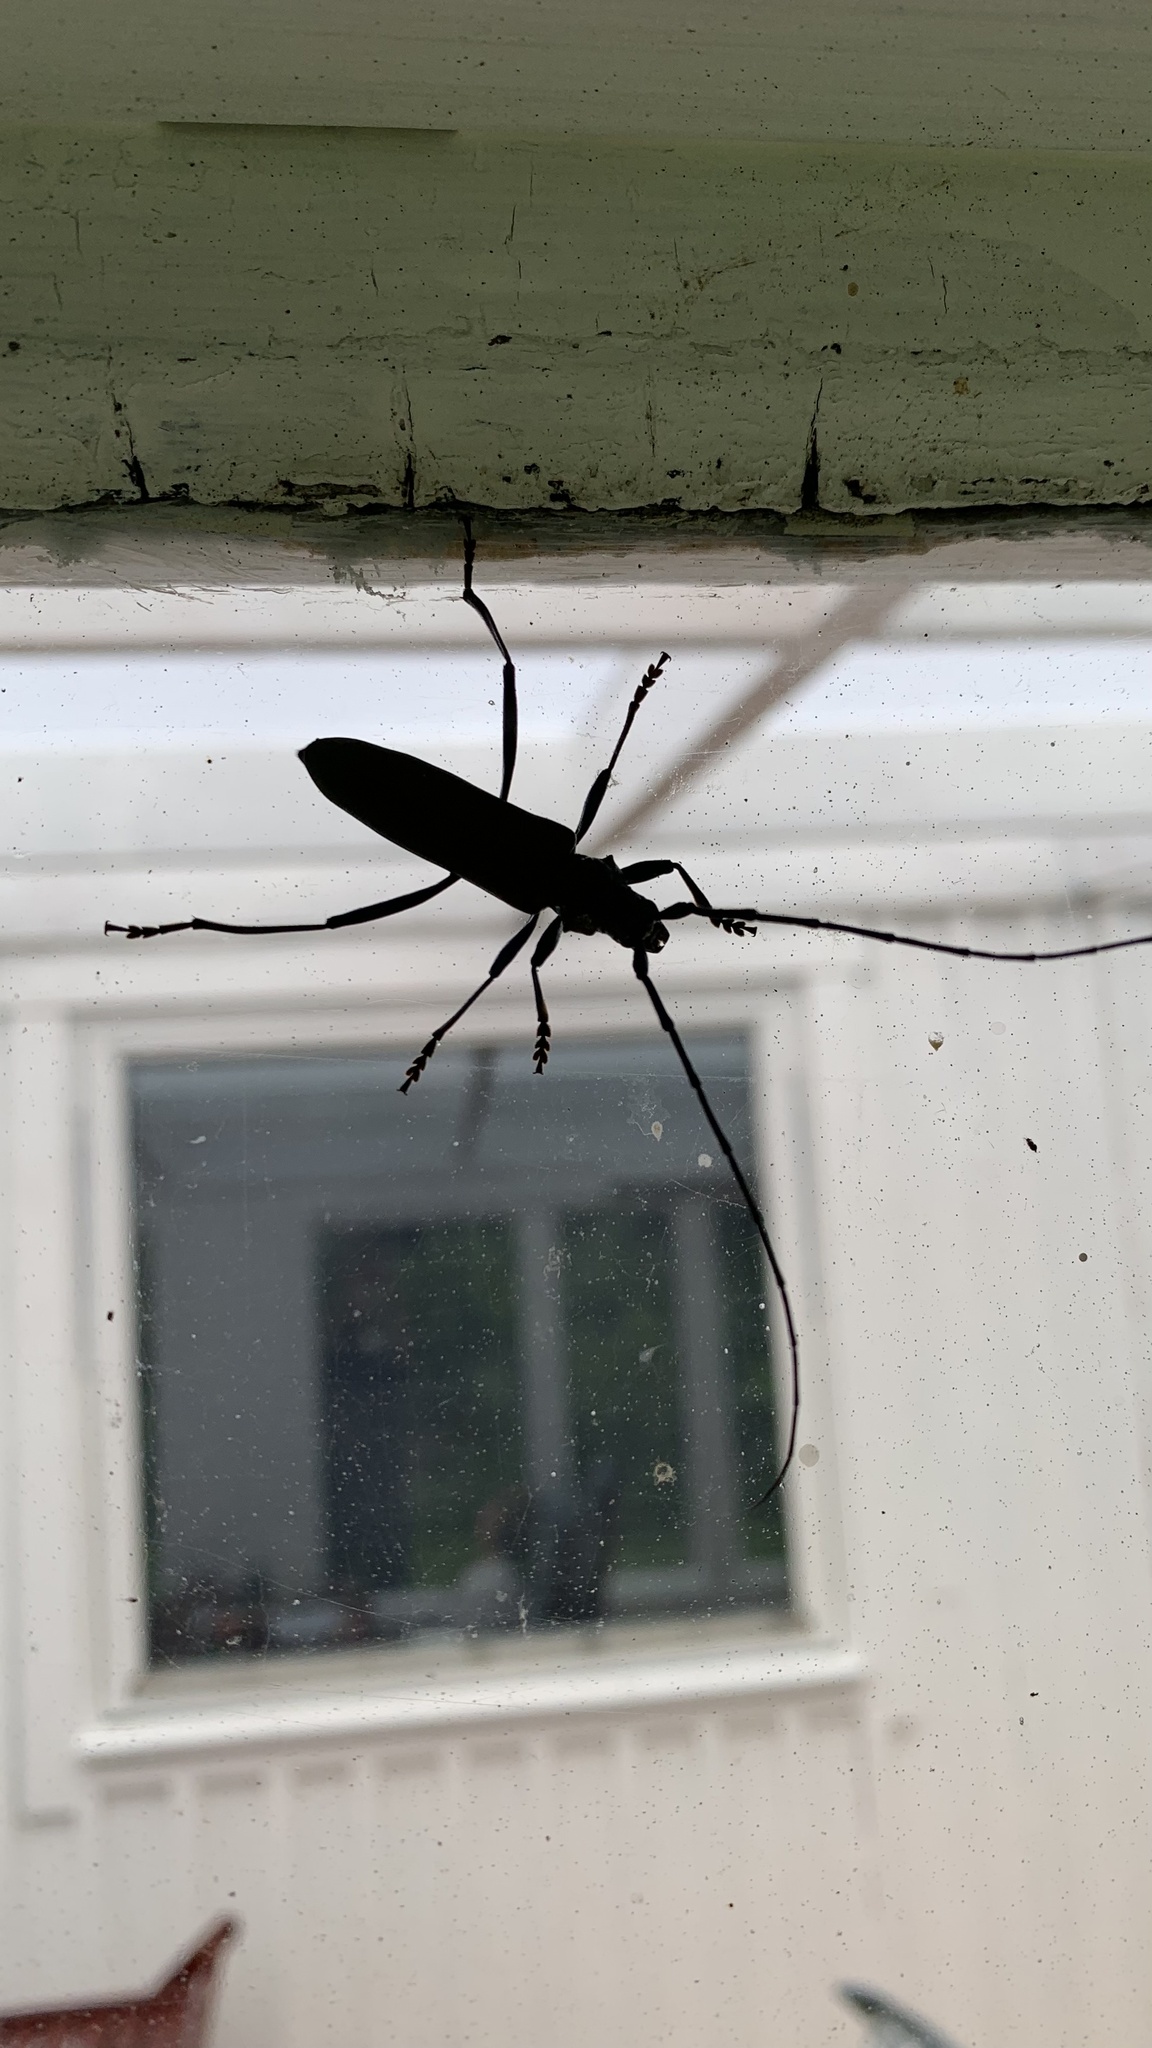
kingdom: Animalia
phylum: Arthropoda
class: Insecta
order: Coleoptera
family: Cerambycidae
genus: Aromia
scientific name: Aromia moschata
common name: Musk beetle
